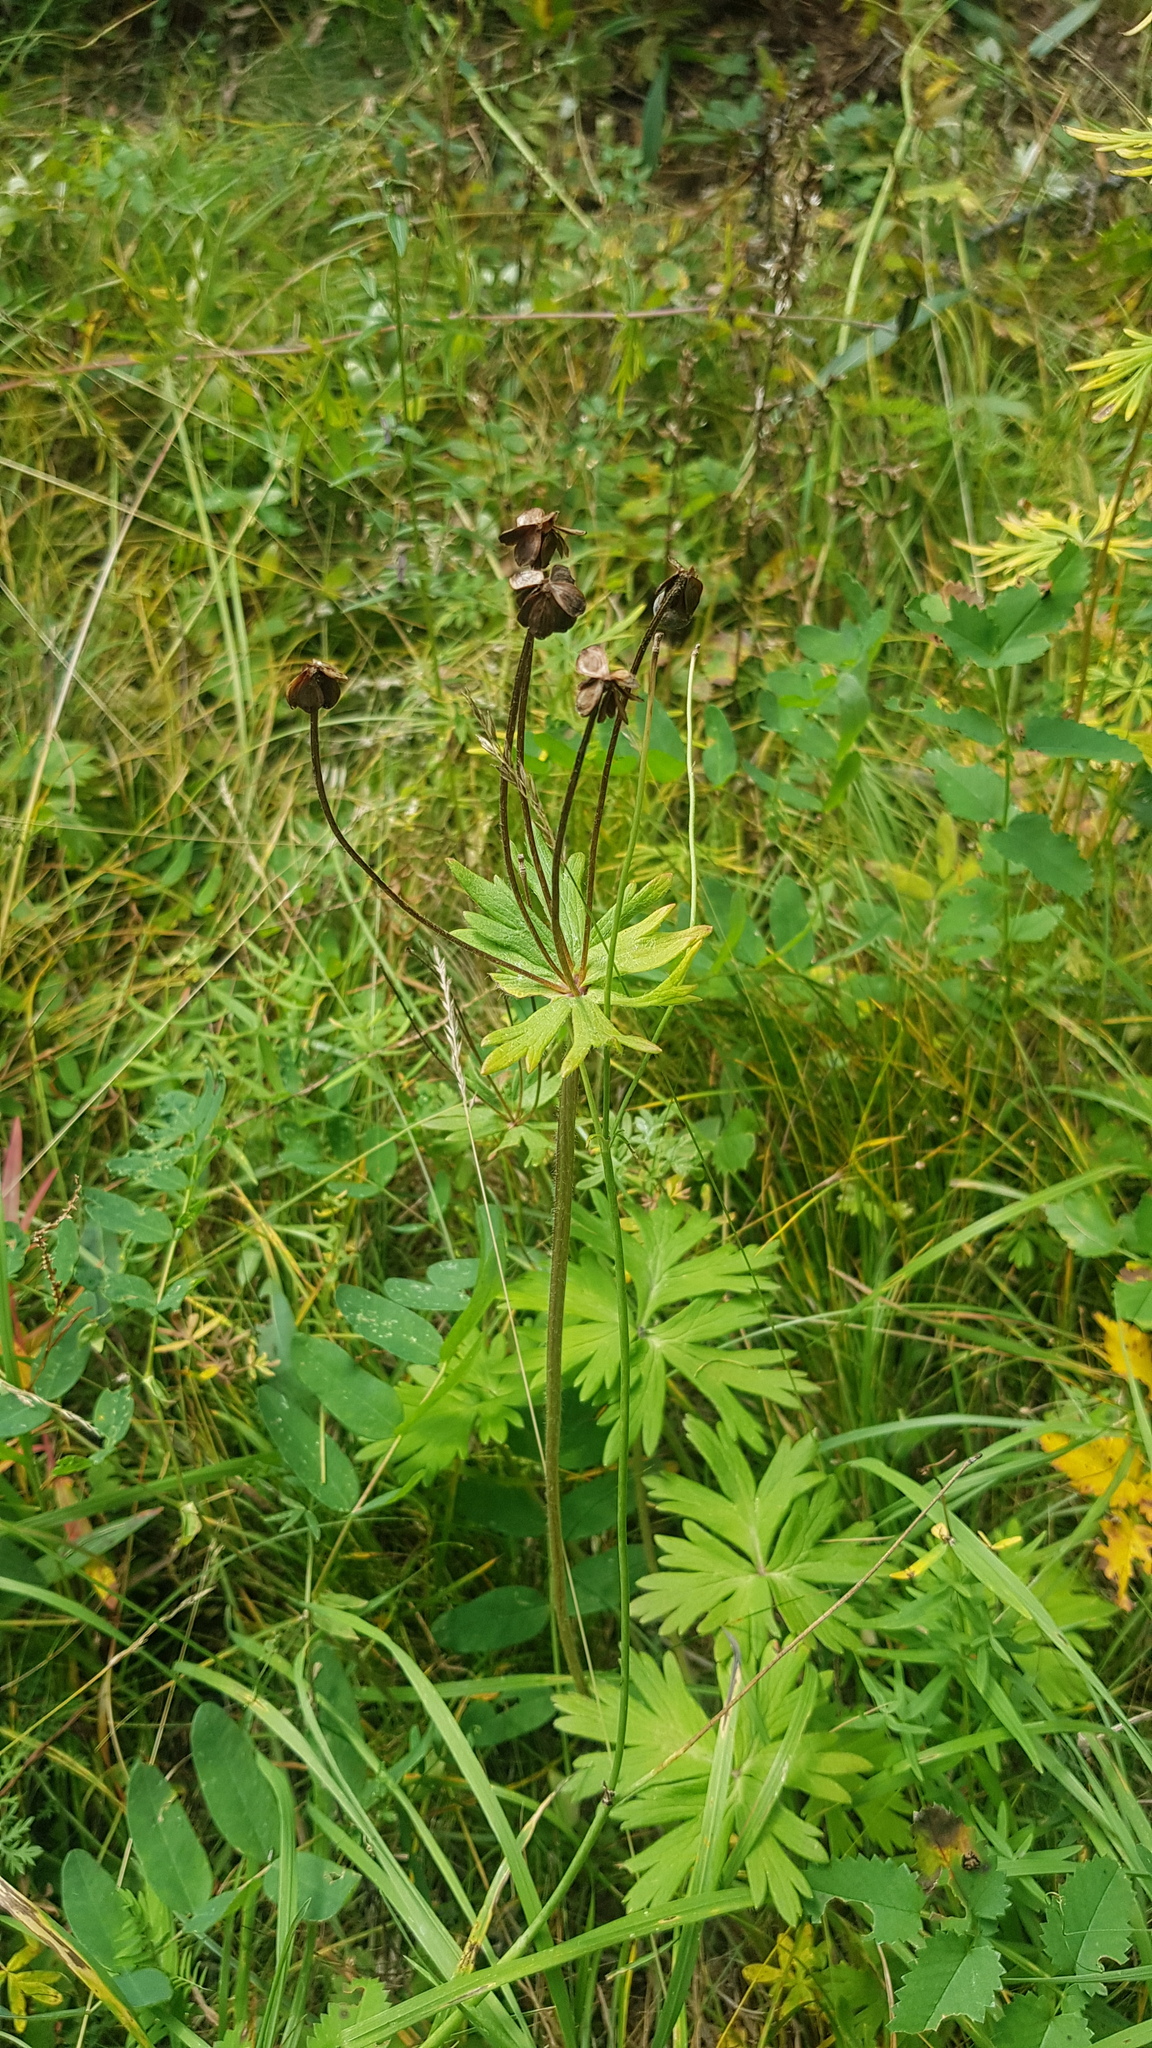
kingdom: Plantae
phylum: Tracheophyta
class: Magnoliopsida
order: Ranunculales
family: Ranunculaceae
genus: Anemonastrum
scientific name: Anemonastrum narcissiflorum
